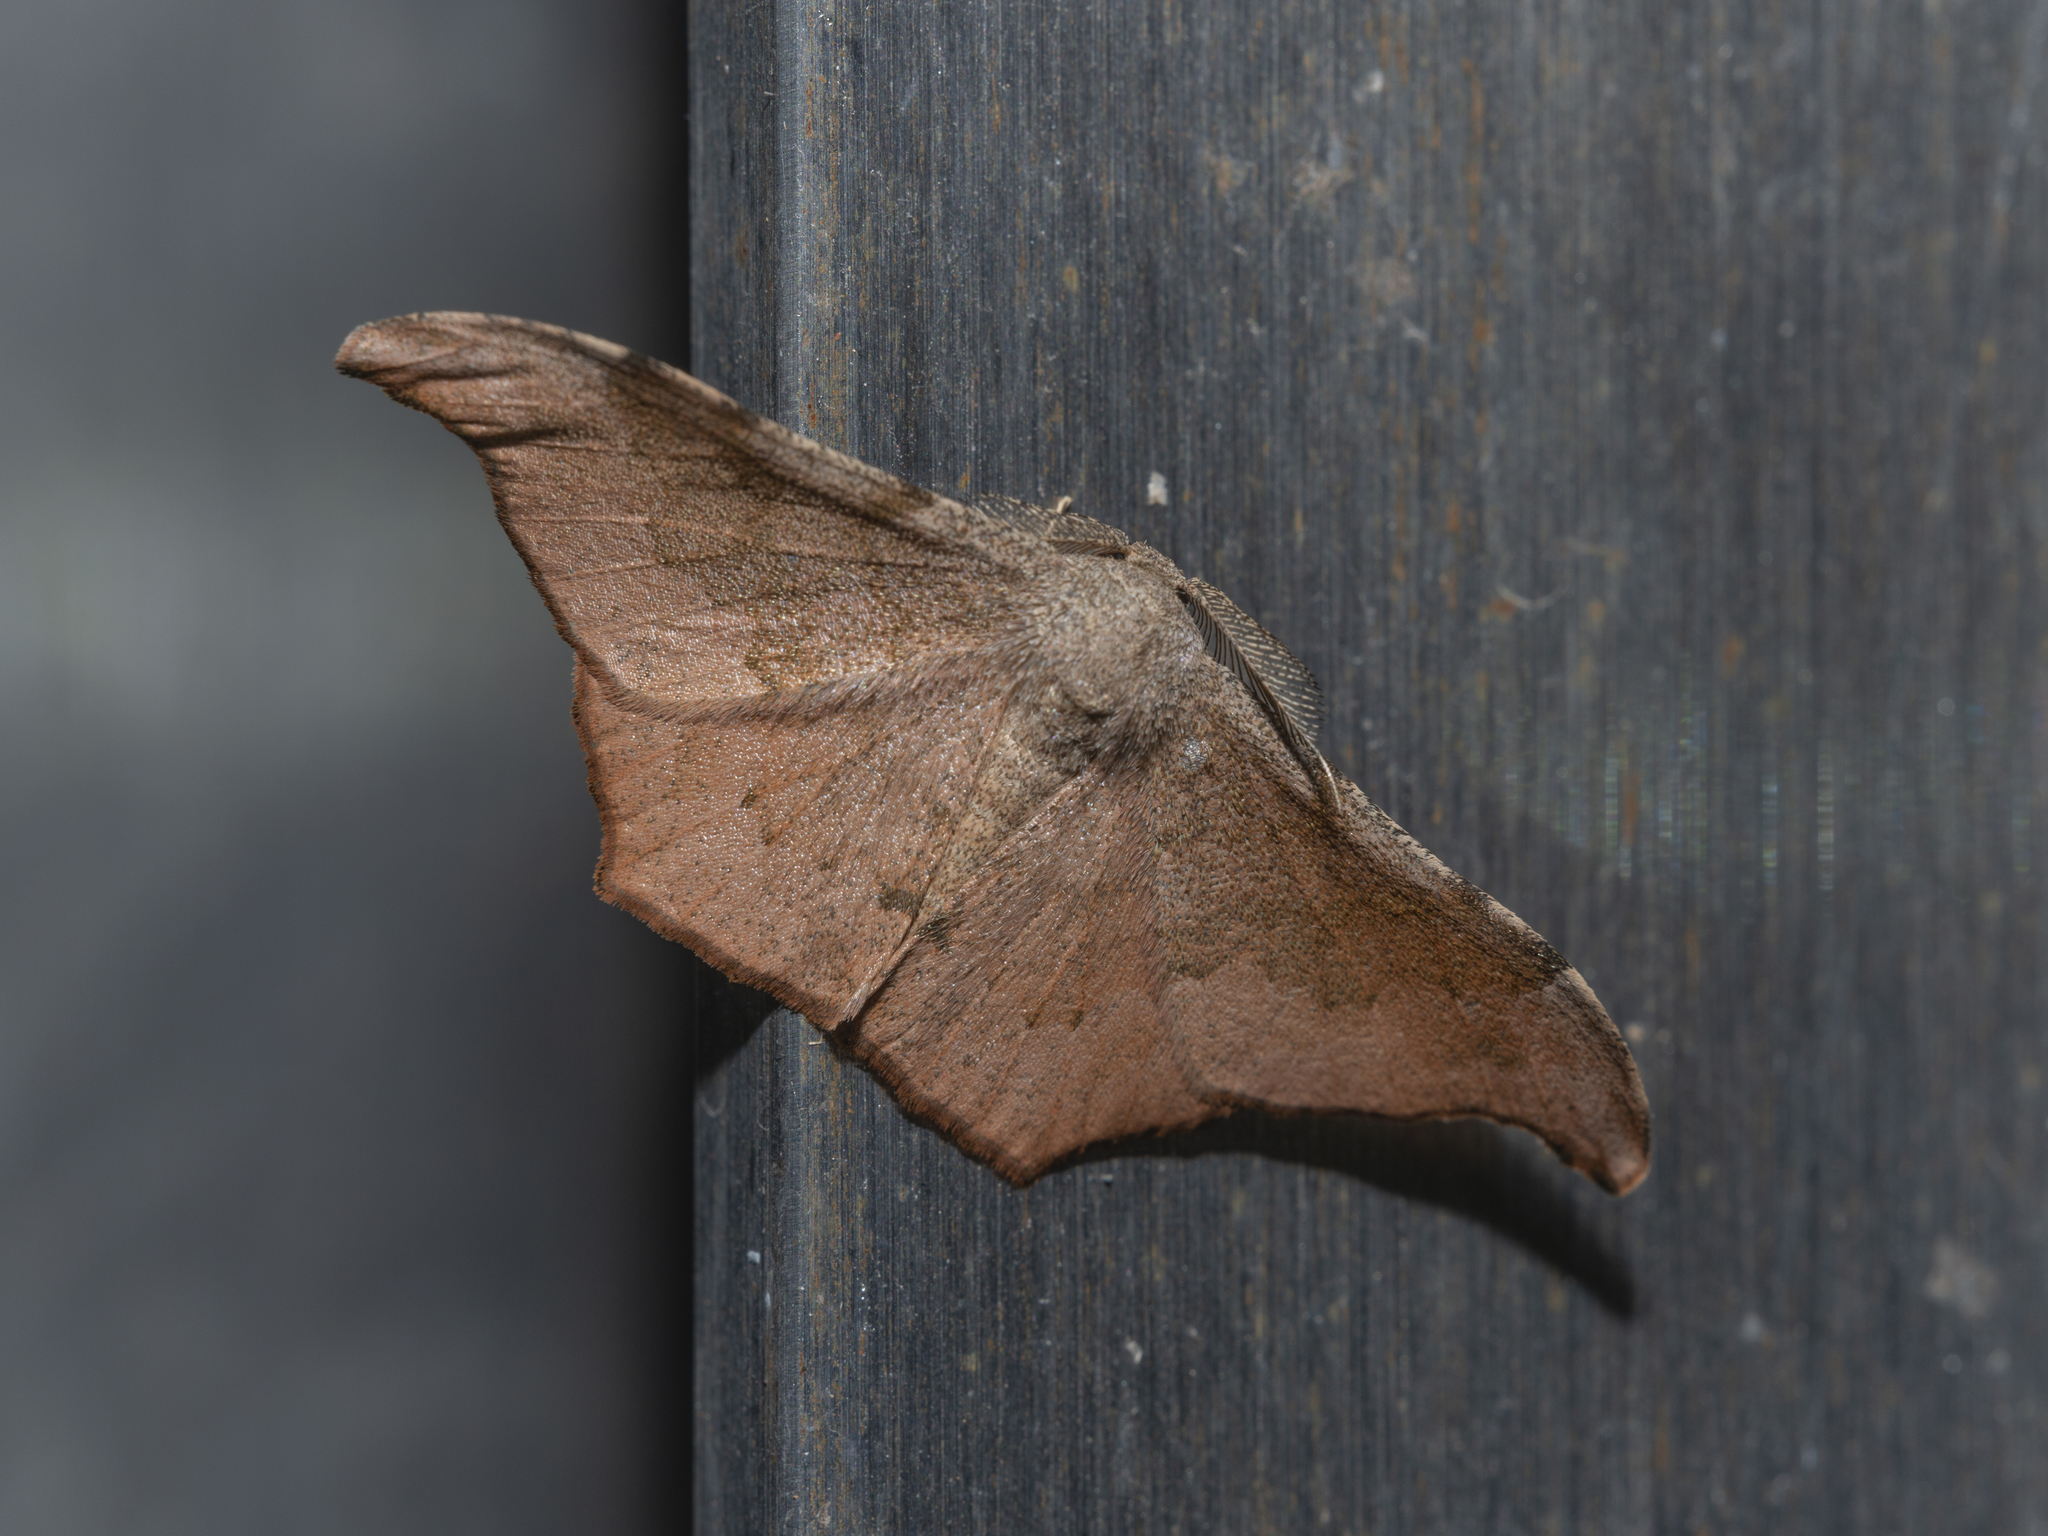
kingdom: Animalia
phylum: Arthropoda
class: Insecta
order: Lepidoptera
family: Geometridae
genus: Hyposidra
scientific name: Hyposidra talaca
